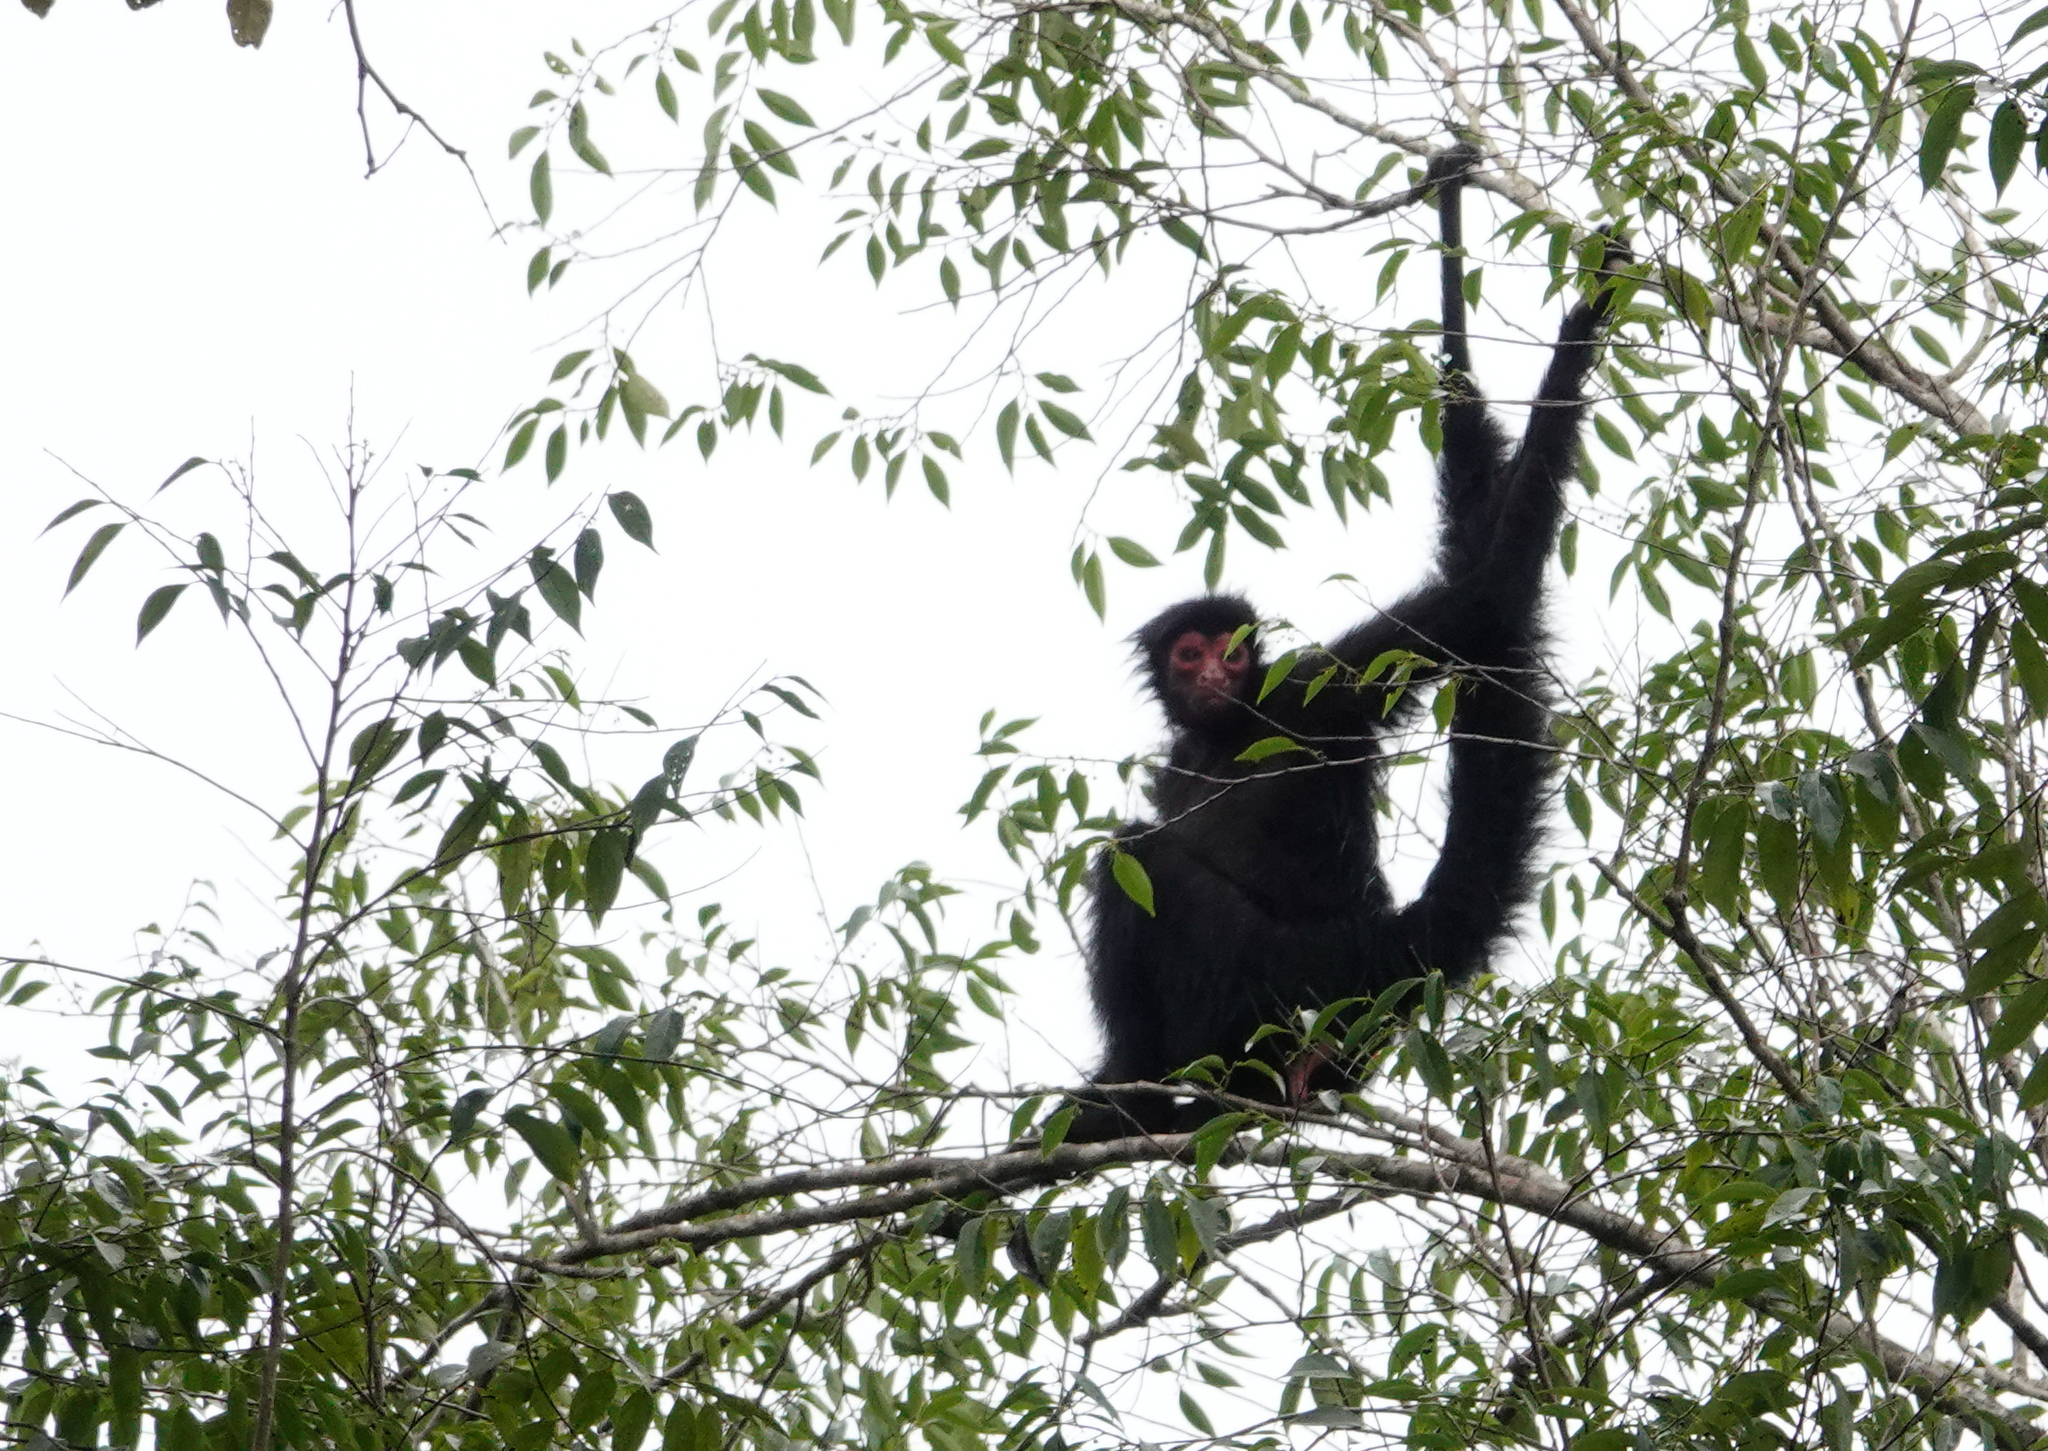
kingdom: Animalia
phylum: Chordata
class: Mammalia
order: Primates
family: Atelidae
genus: Ateles
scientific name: Ateles paniscus
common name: Red-faced spider monkey
